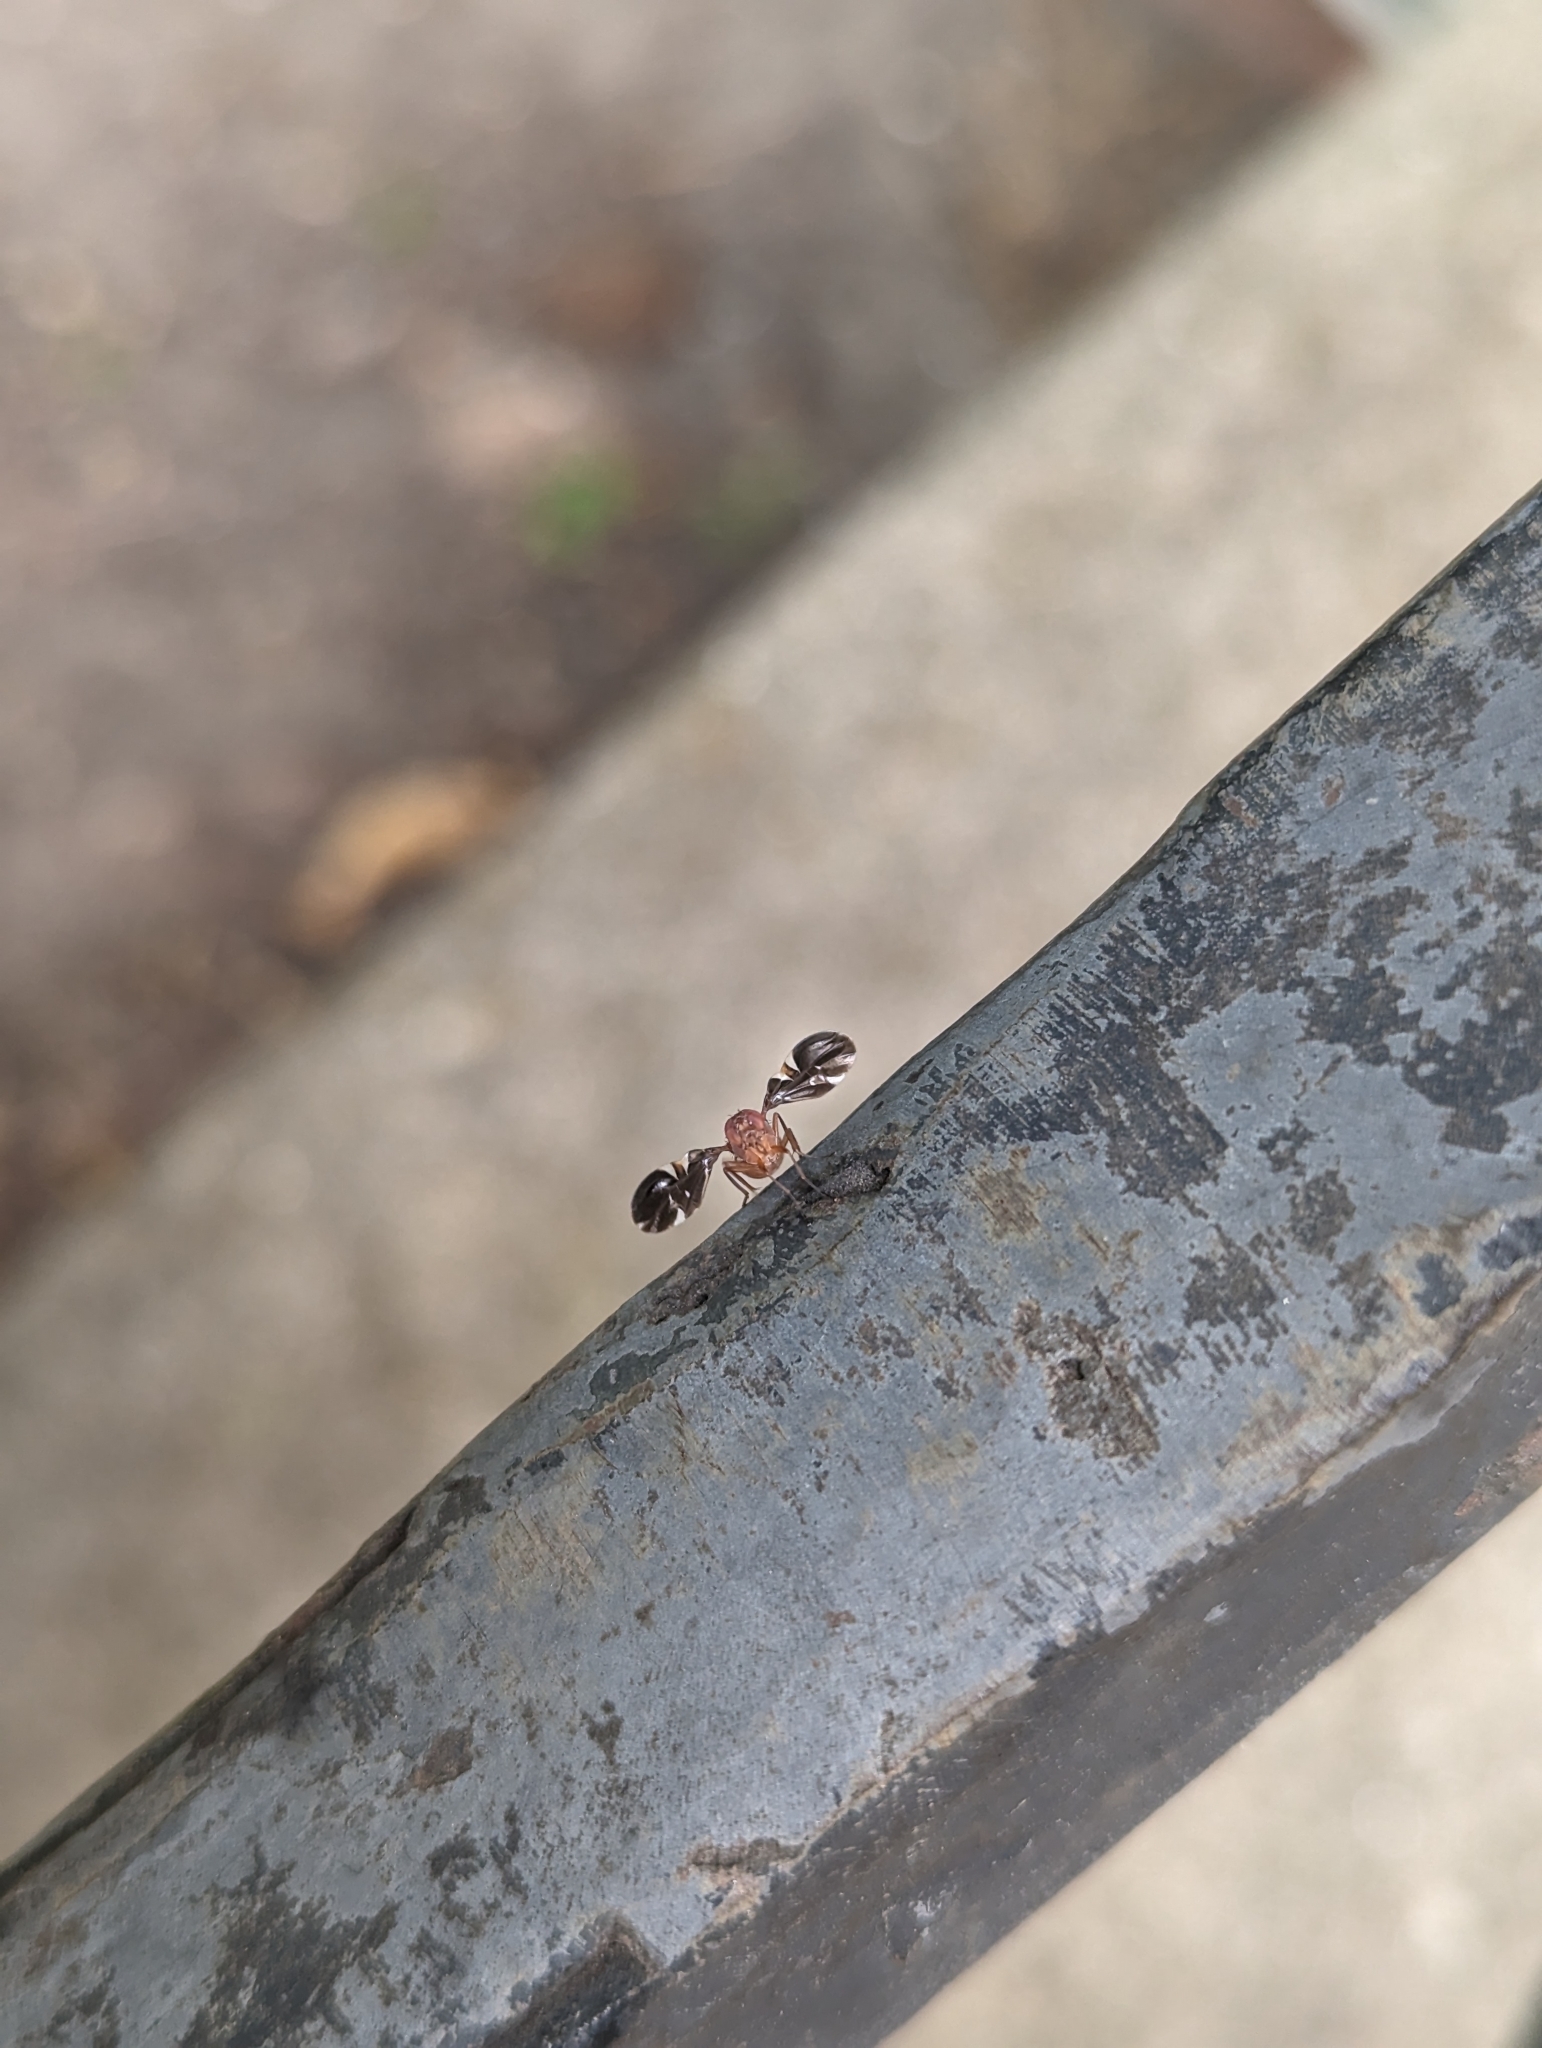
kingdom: Animalia
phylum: Arthropoda
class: Insecta
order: Diptera
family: Ulidiidae
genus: Delphinia
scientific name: Delphinia picta
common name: Common picture-winged fly
